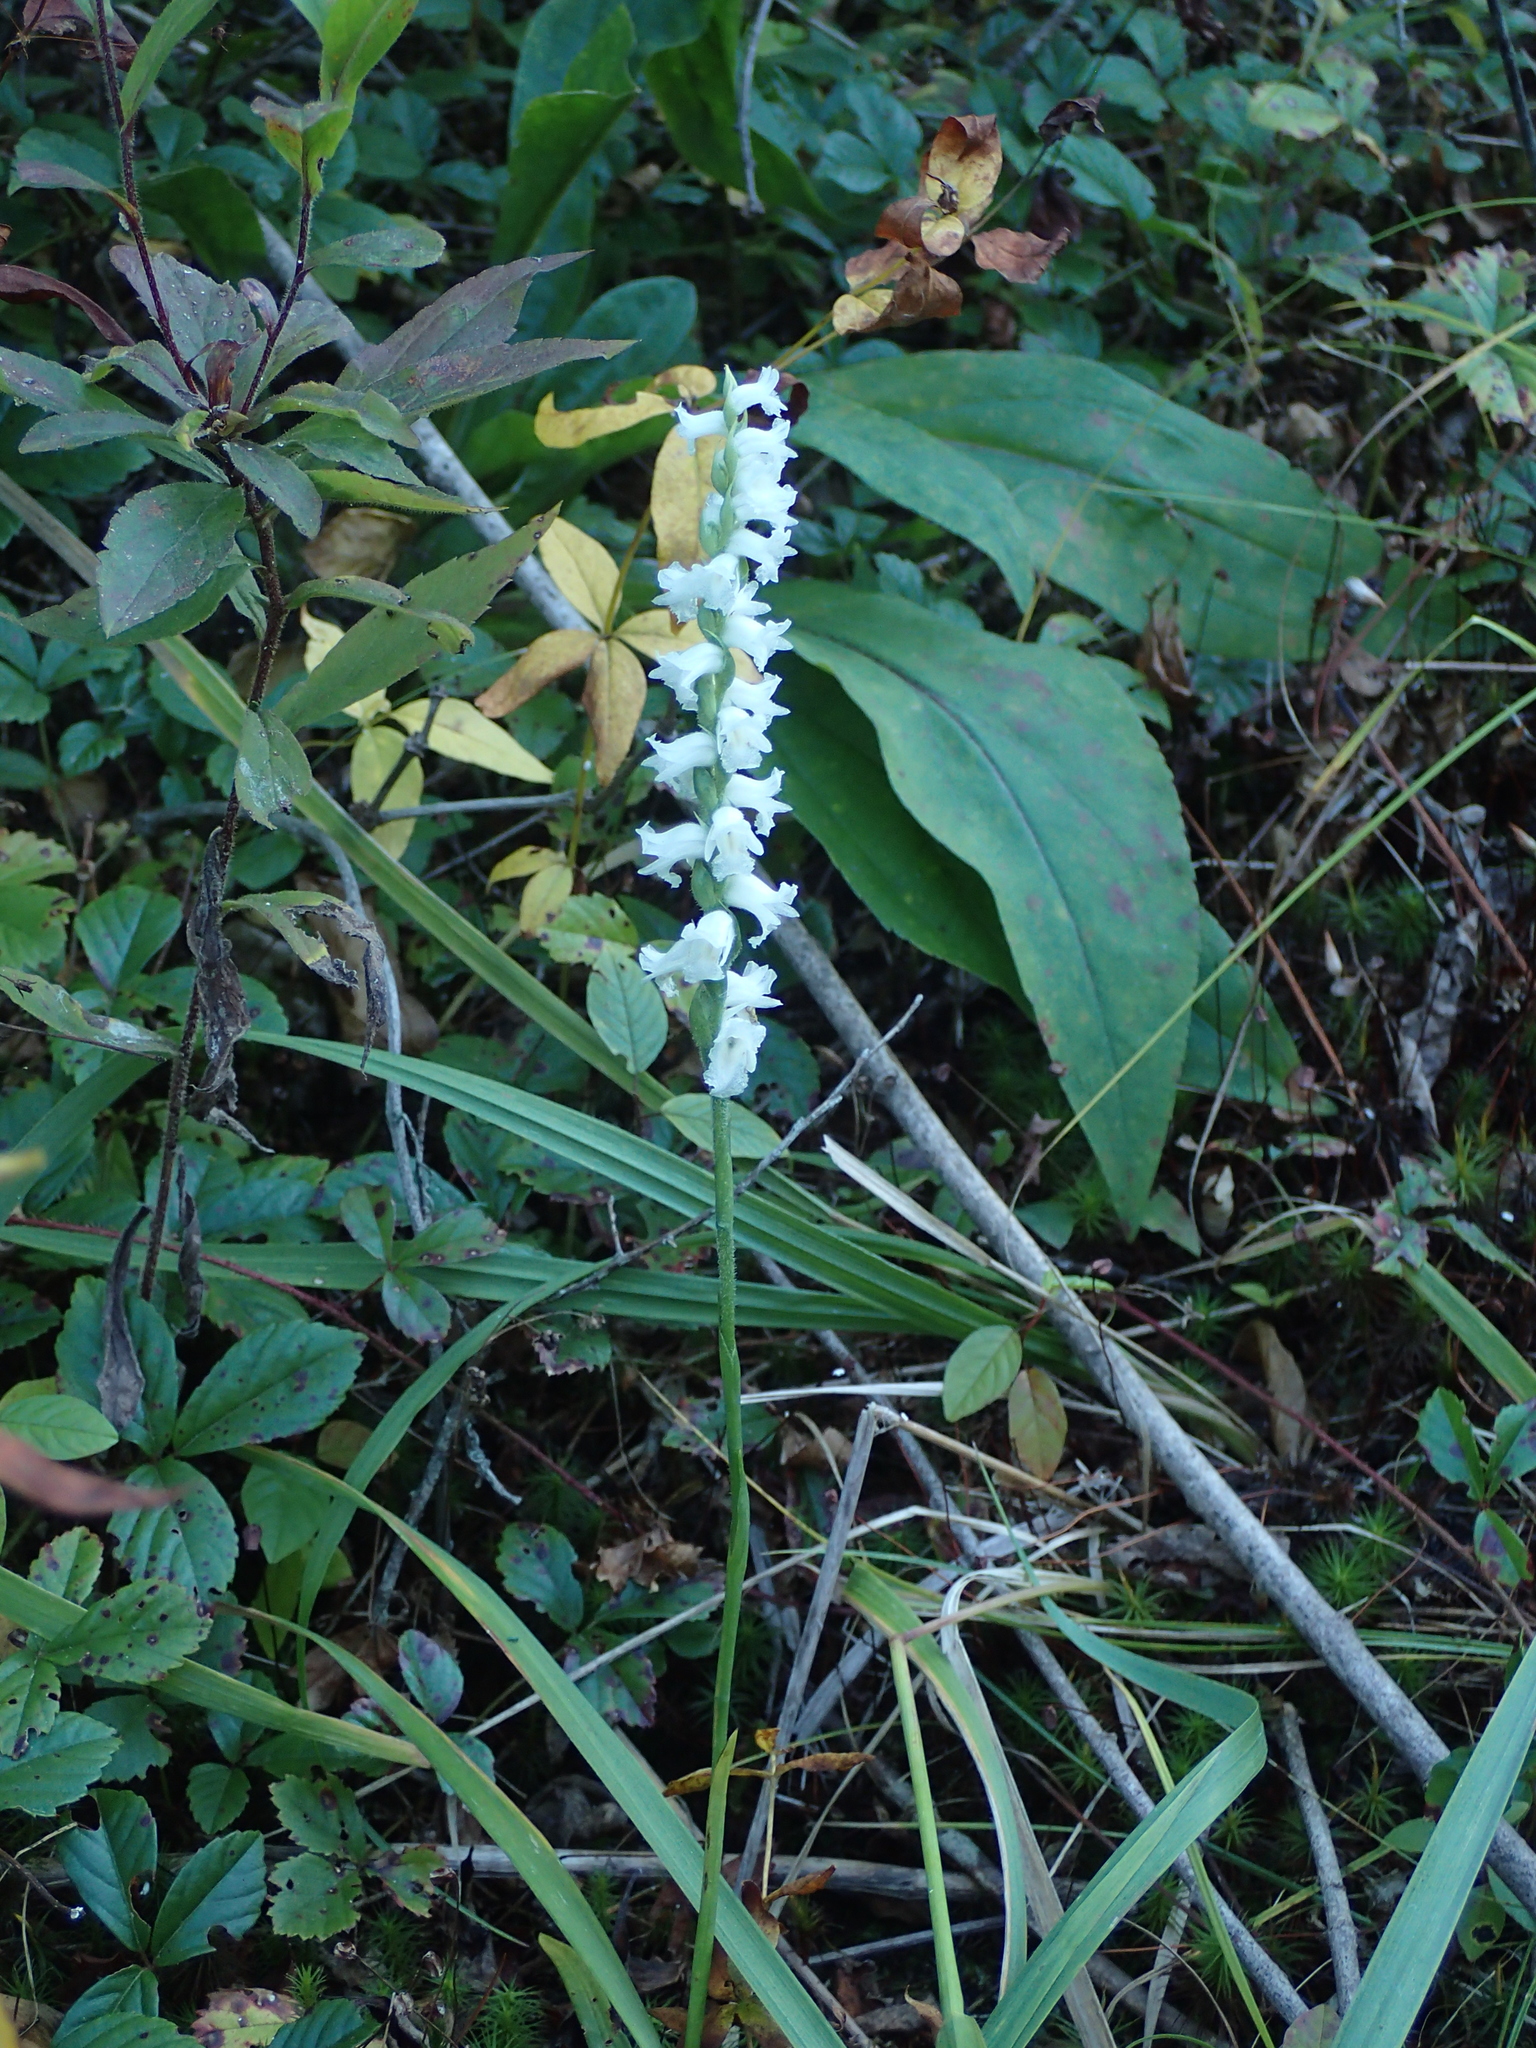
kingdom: Plantae
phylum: Tracheophyta
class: Liliopsida
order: Asparagales
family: Orchidaceae
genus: Spiranthes
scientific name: Spiranthes arcisepala
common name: Appalachian ladies'-tresses
